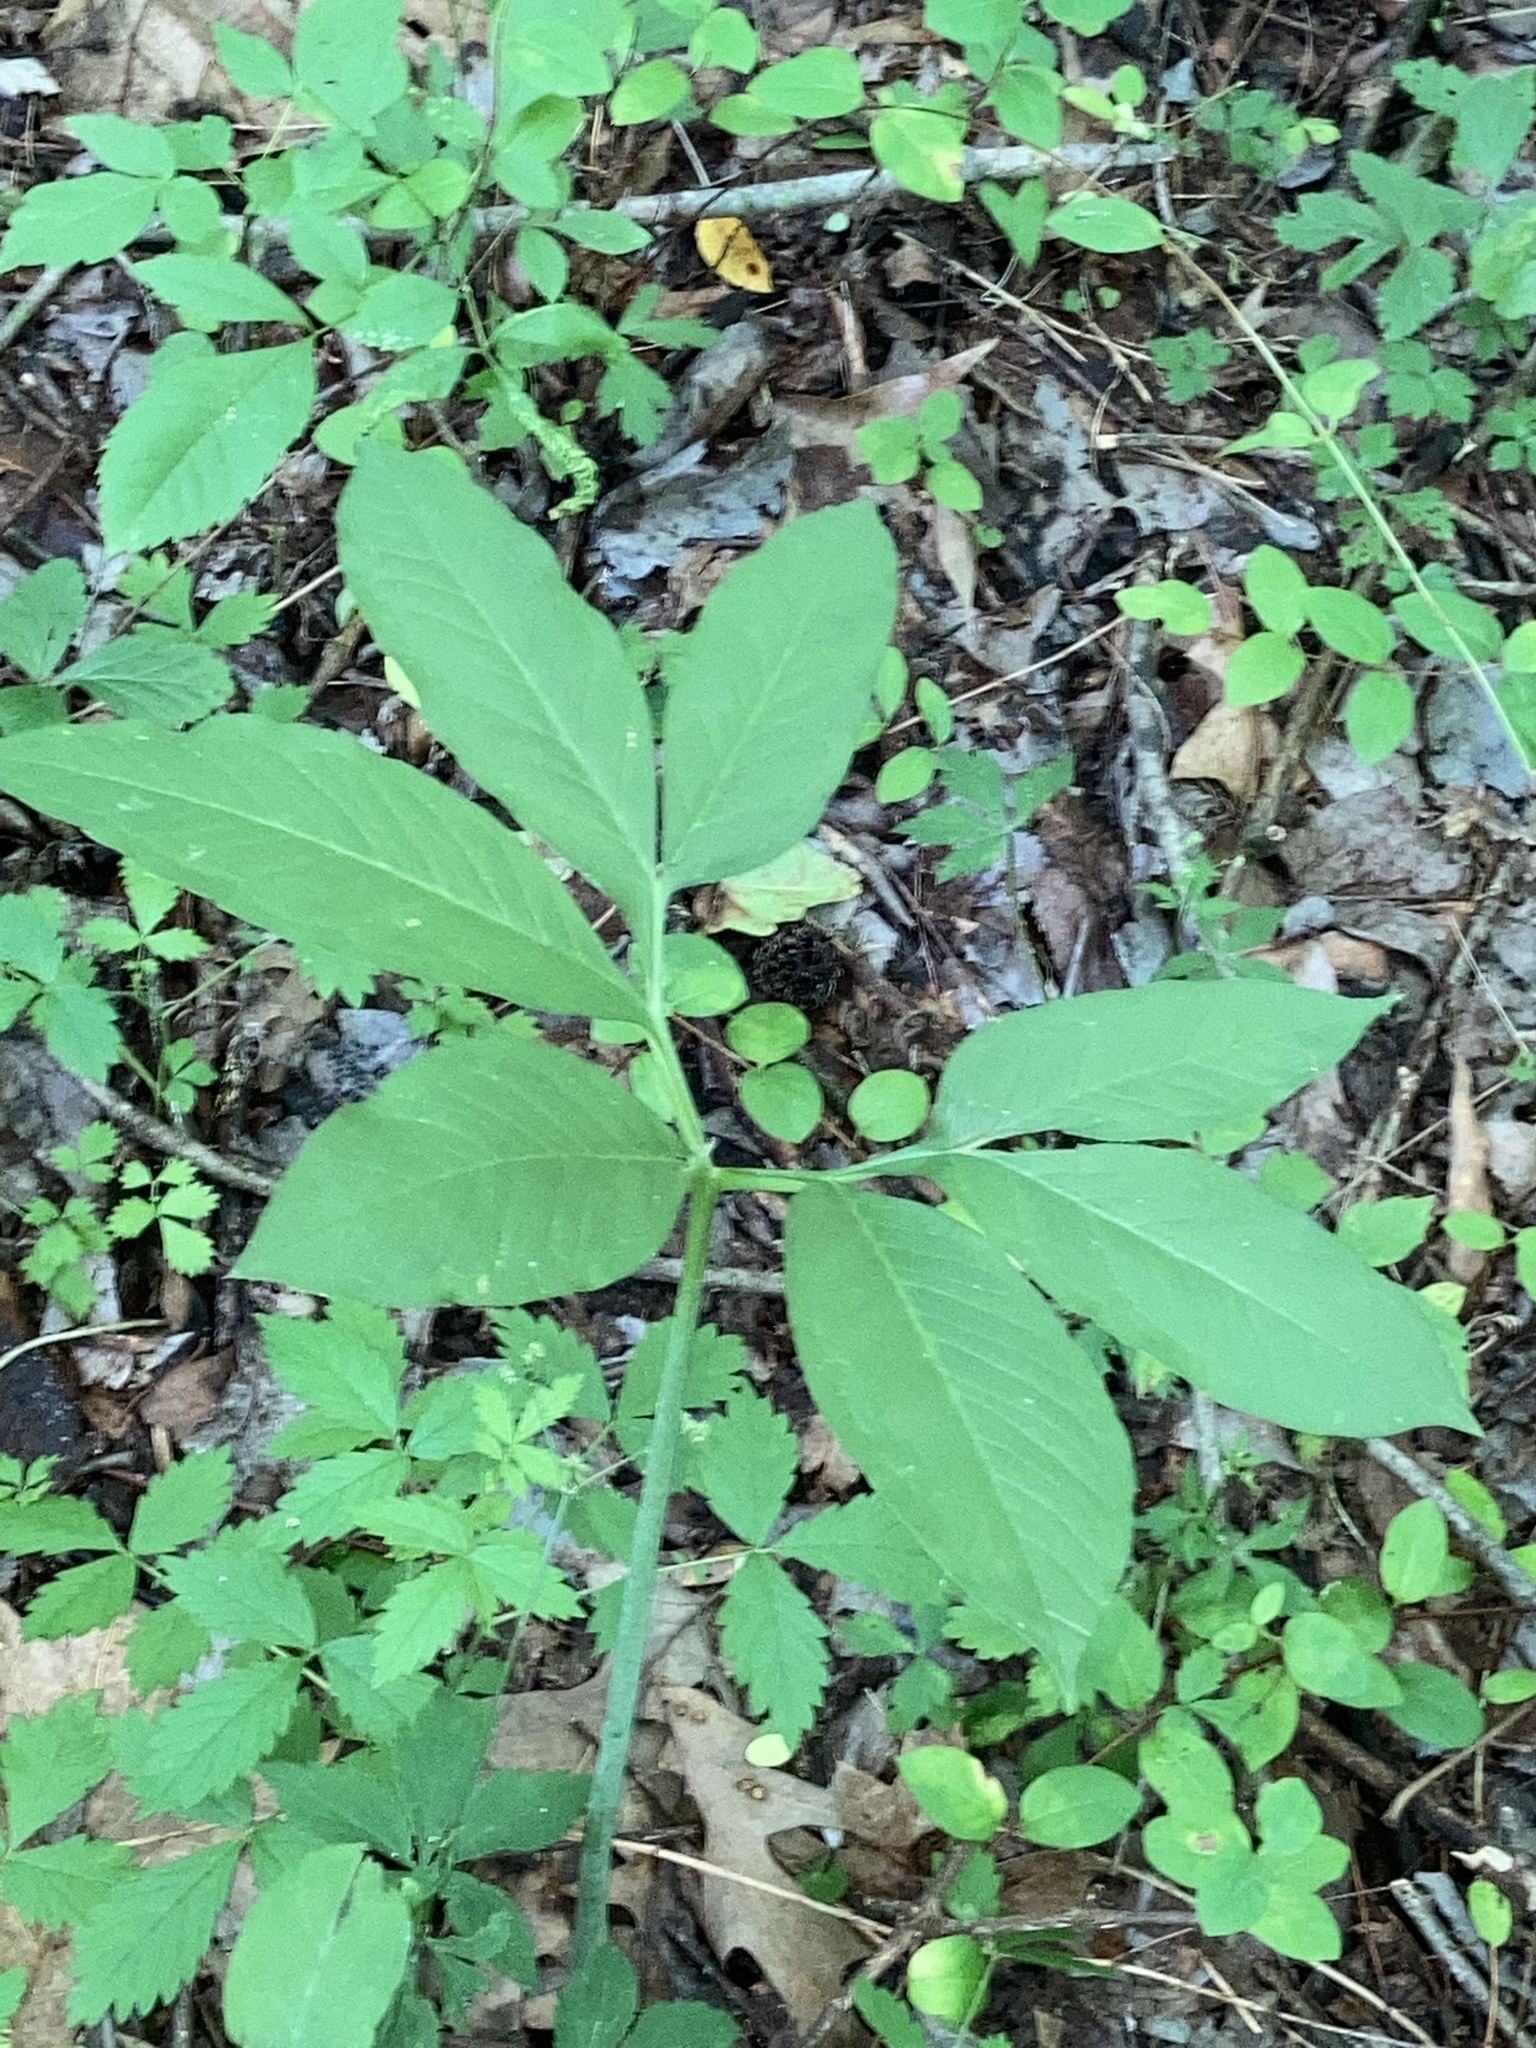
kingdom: Plantae
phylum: Tracheophyta
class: Liliopsida
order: Alismatales
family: Araceae
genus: Arisaema
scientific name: Arisaema dracontium
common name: Dragon-arum
